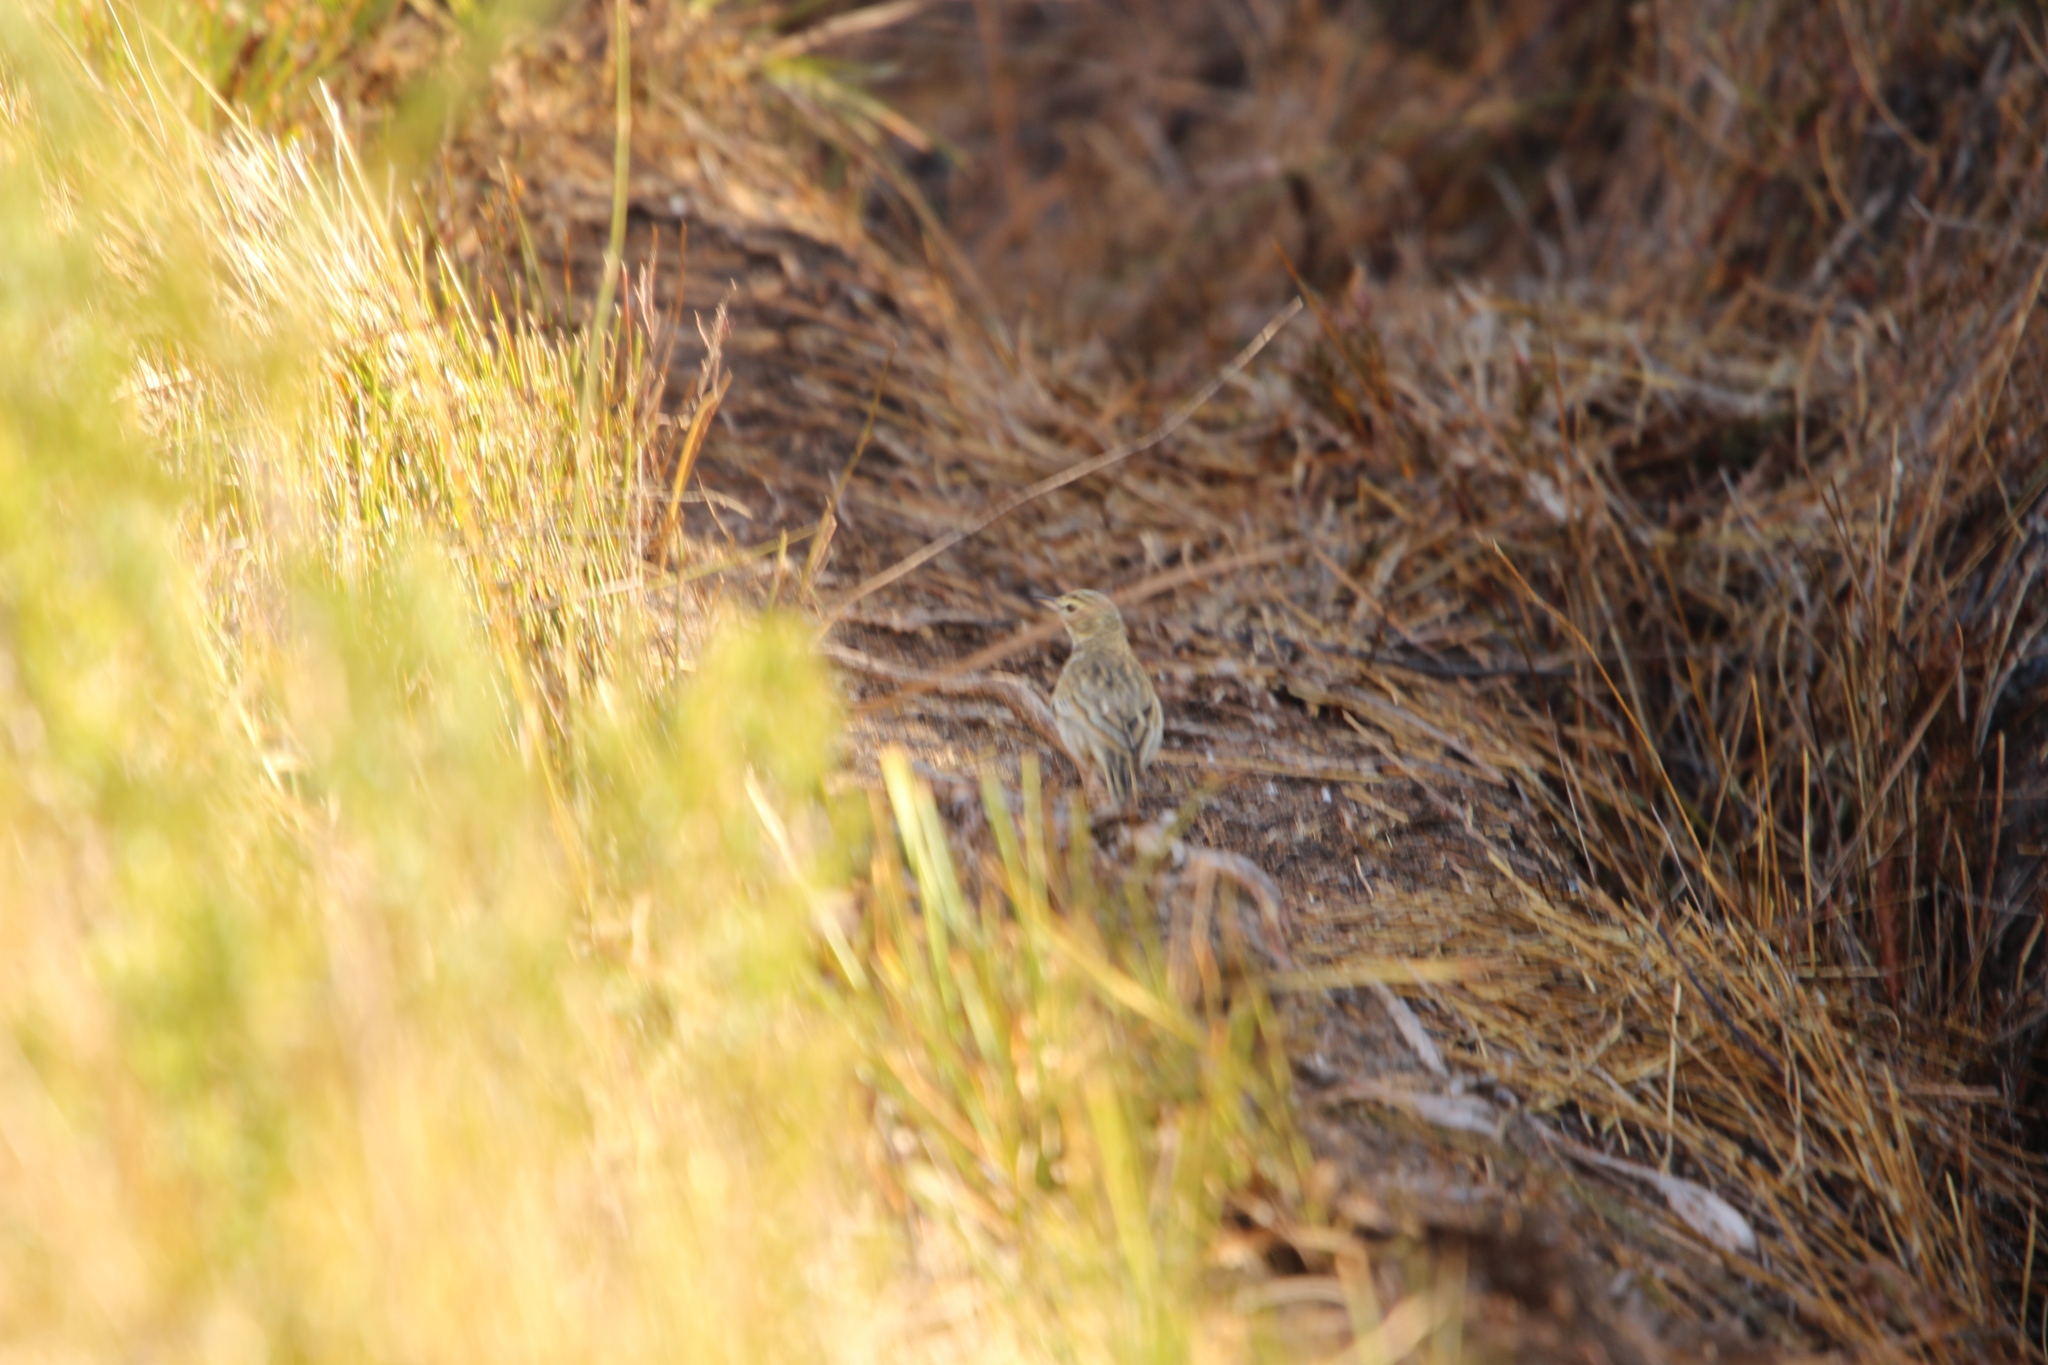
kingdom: Animalia
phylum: Chordata
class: Aves
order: Passeriformes
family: Motacillidae
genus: Anthus
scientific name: Anthus australis
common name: Australian pipit
